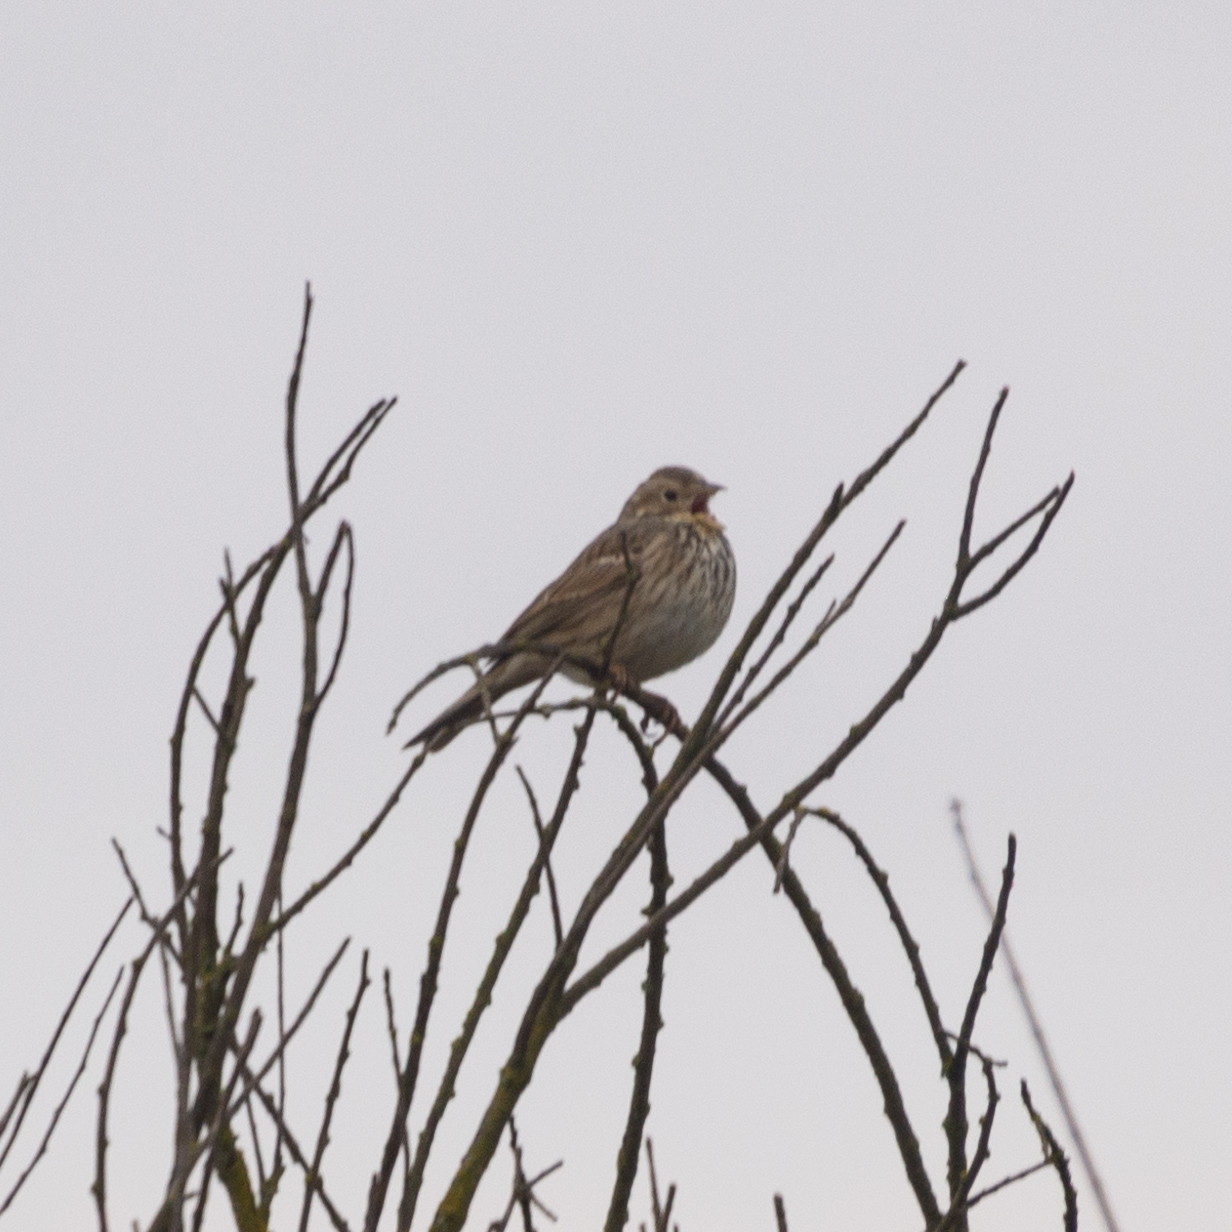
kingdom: Animalia
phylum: Chordata
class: Aves
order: Passeriformes
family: Emberizidae
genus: Emberiza
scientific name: Emberiza calandra
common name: Corn bunting
